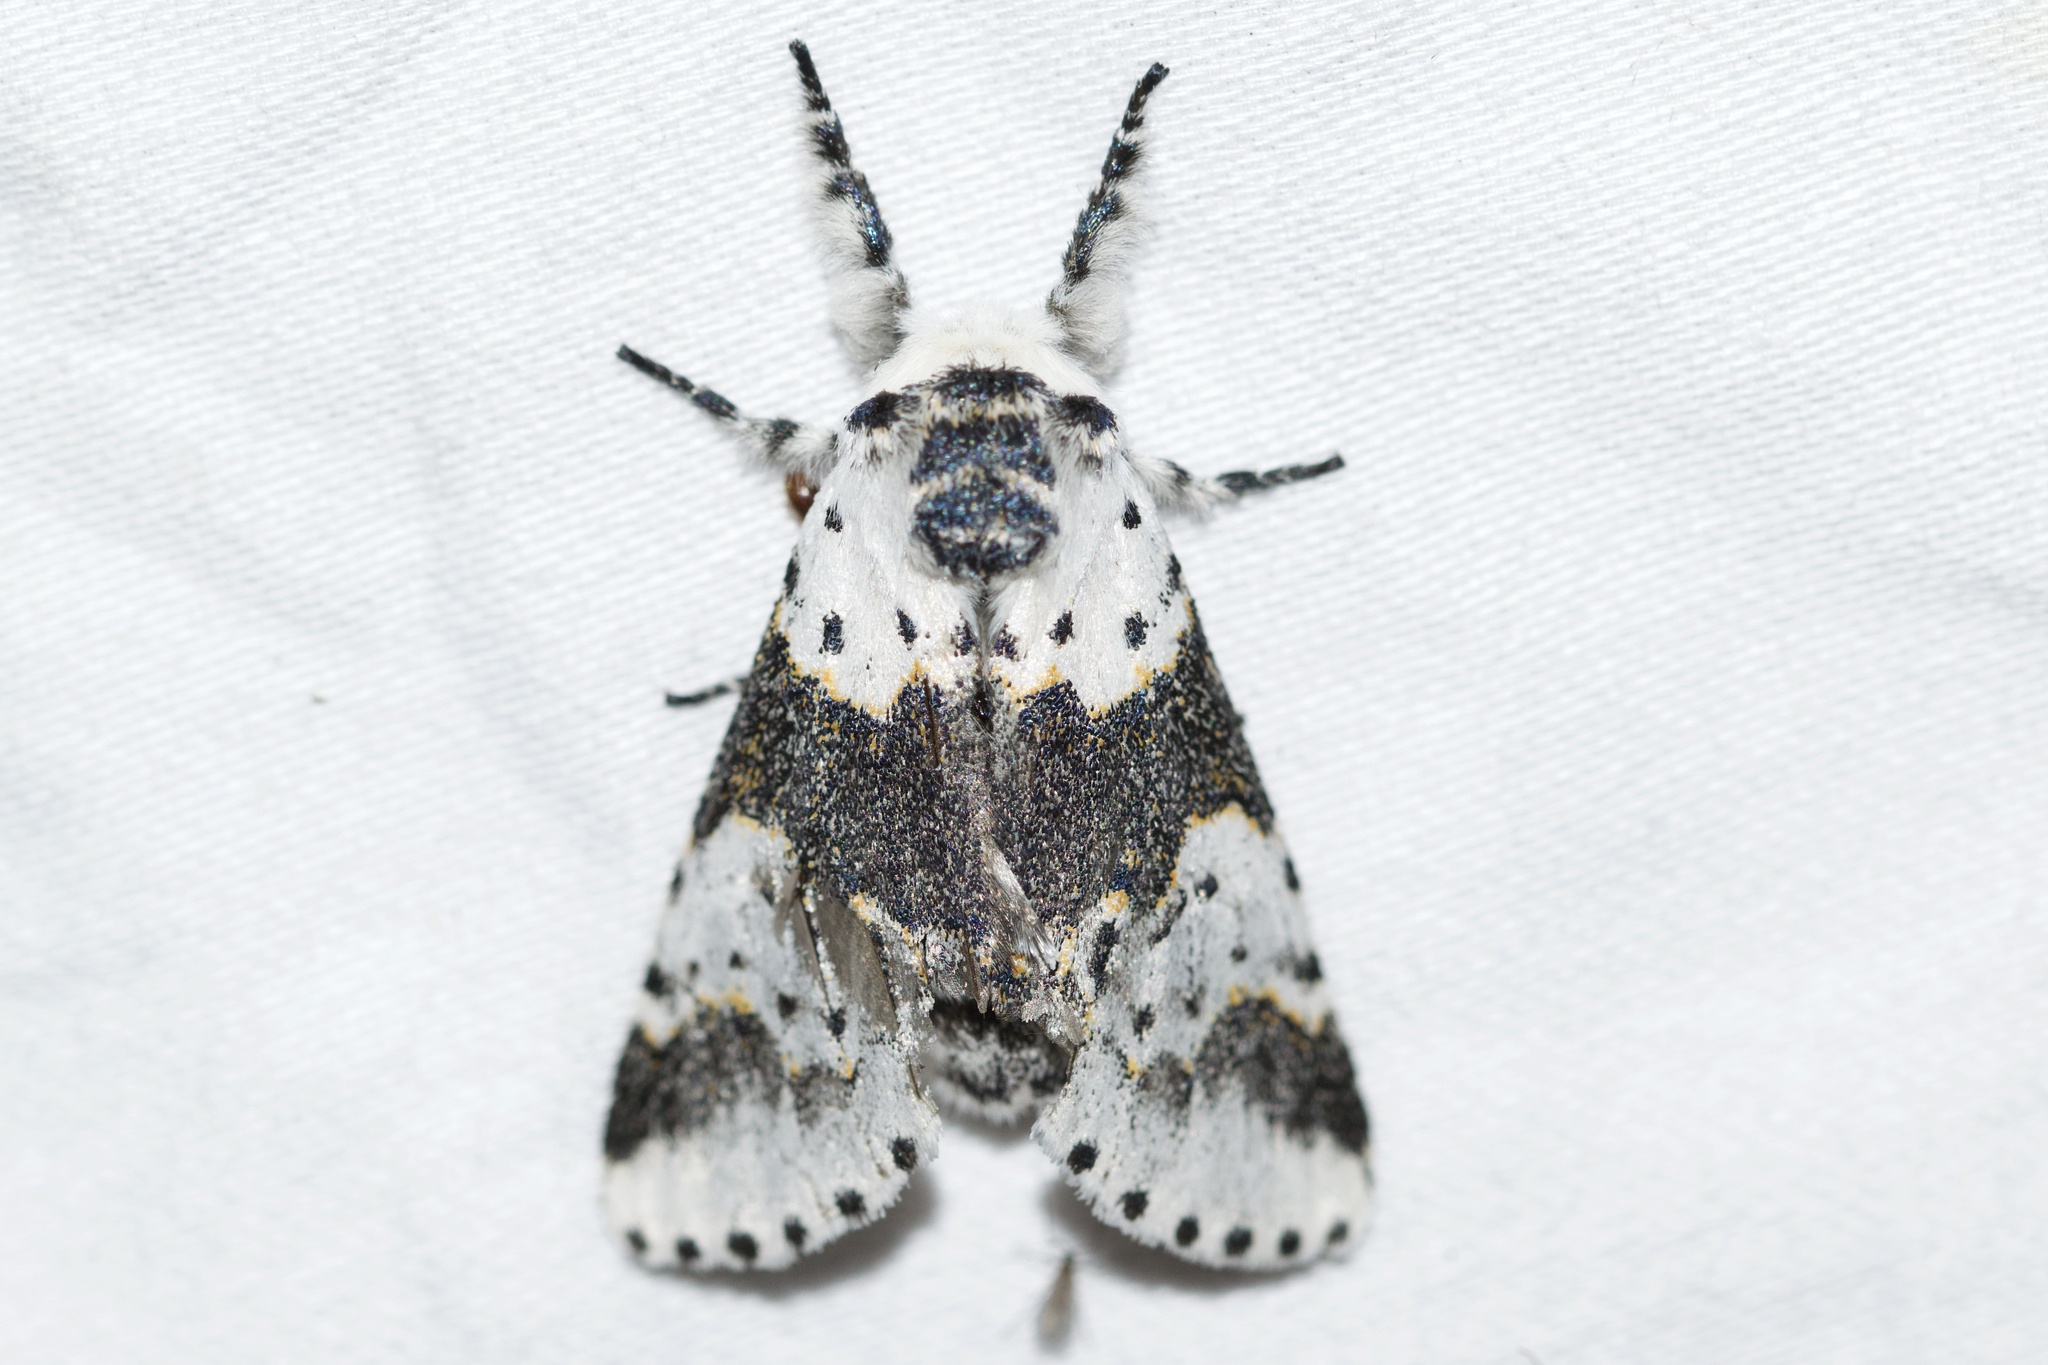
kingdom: Animalia
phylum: Arthropoda
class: Insecta
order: Lepidoptera
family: Notodontidae
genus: Furcula
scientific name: Furcula borealis
